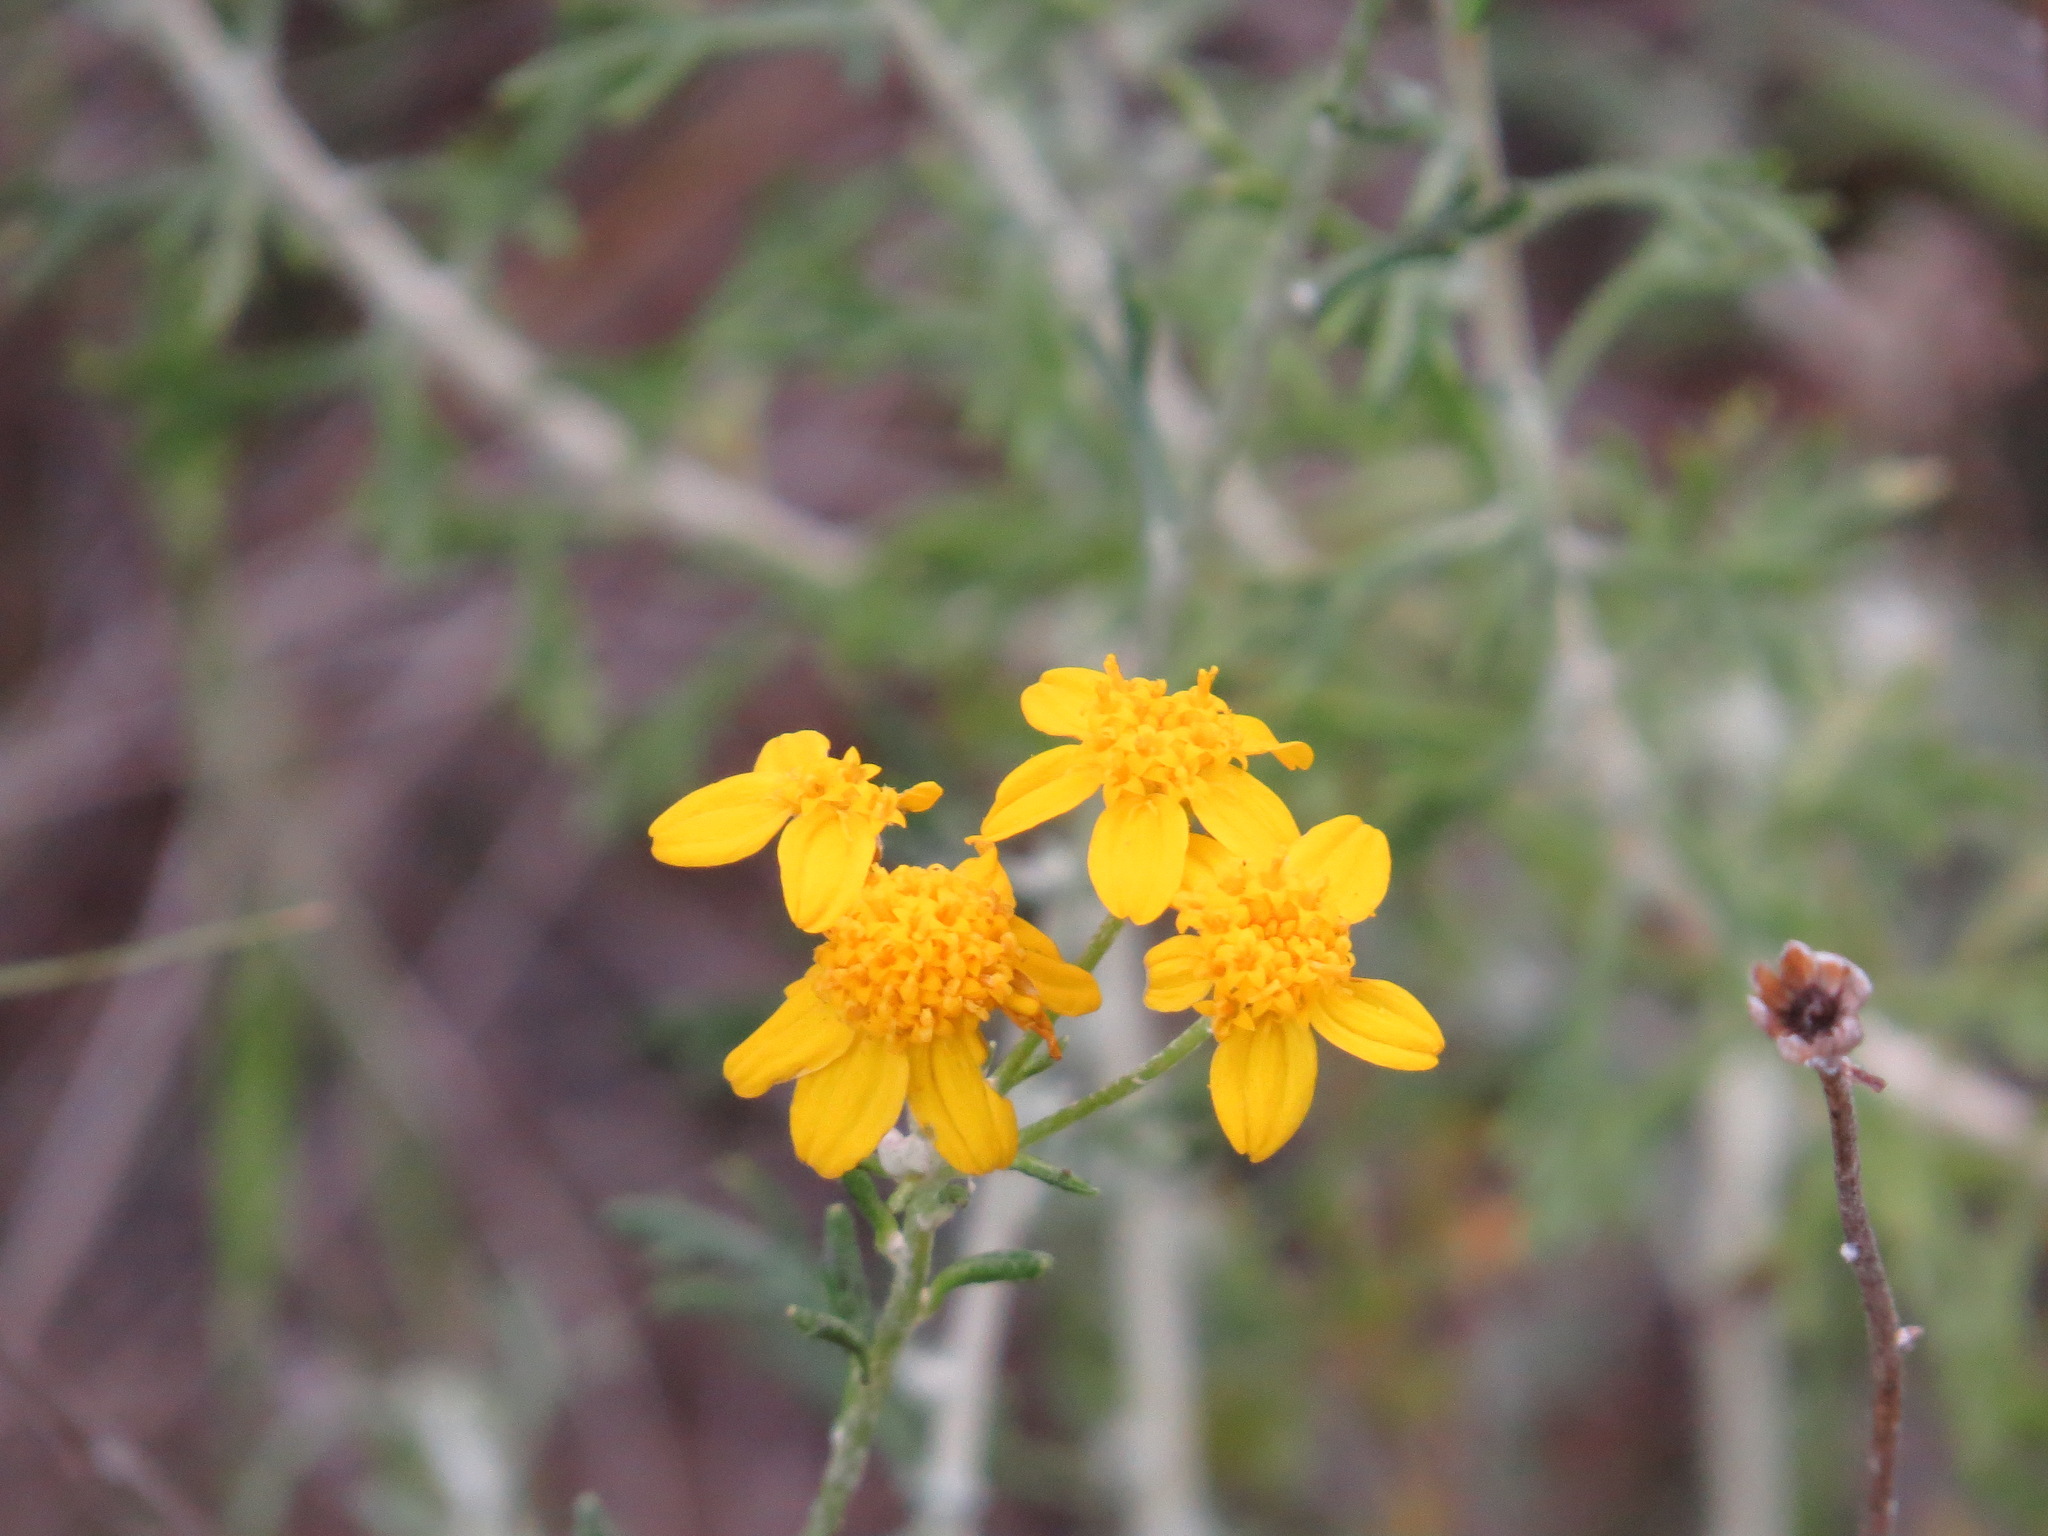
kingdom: Plantae
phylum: Tracheophyta
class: Magnoliopsida
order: Asterales
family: Asteraceae
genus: Eriophyllum
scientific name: Eriophyllum confertiflorum
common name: Golden-yarrow
